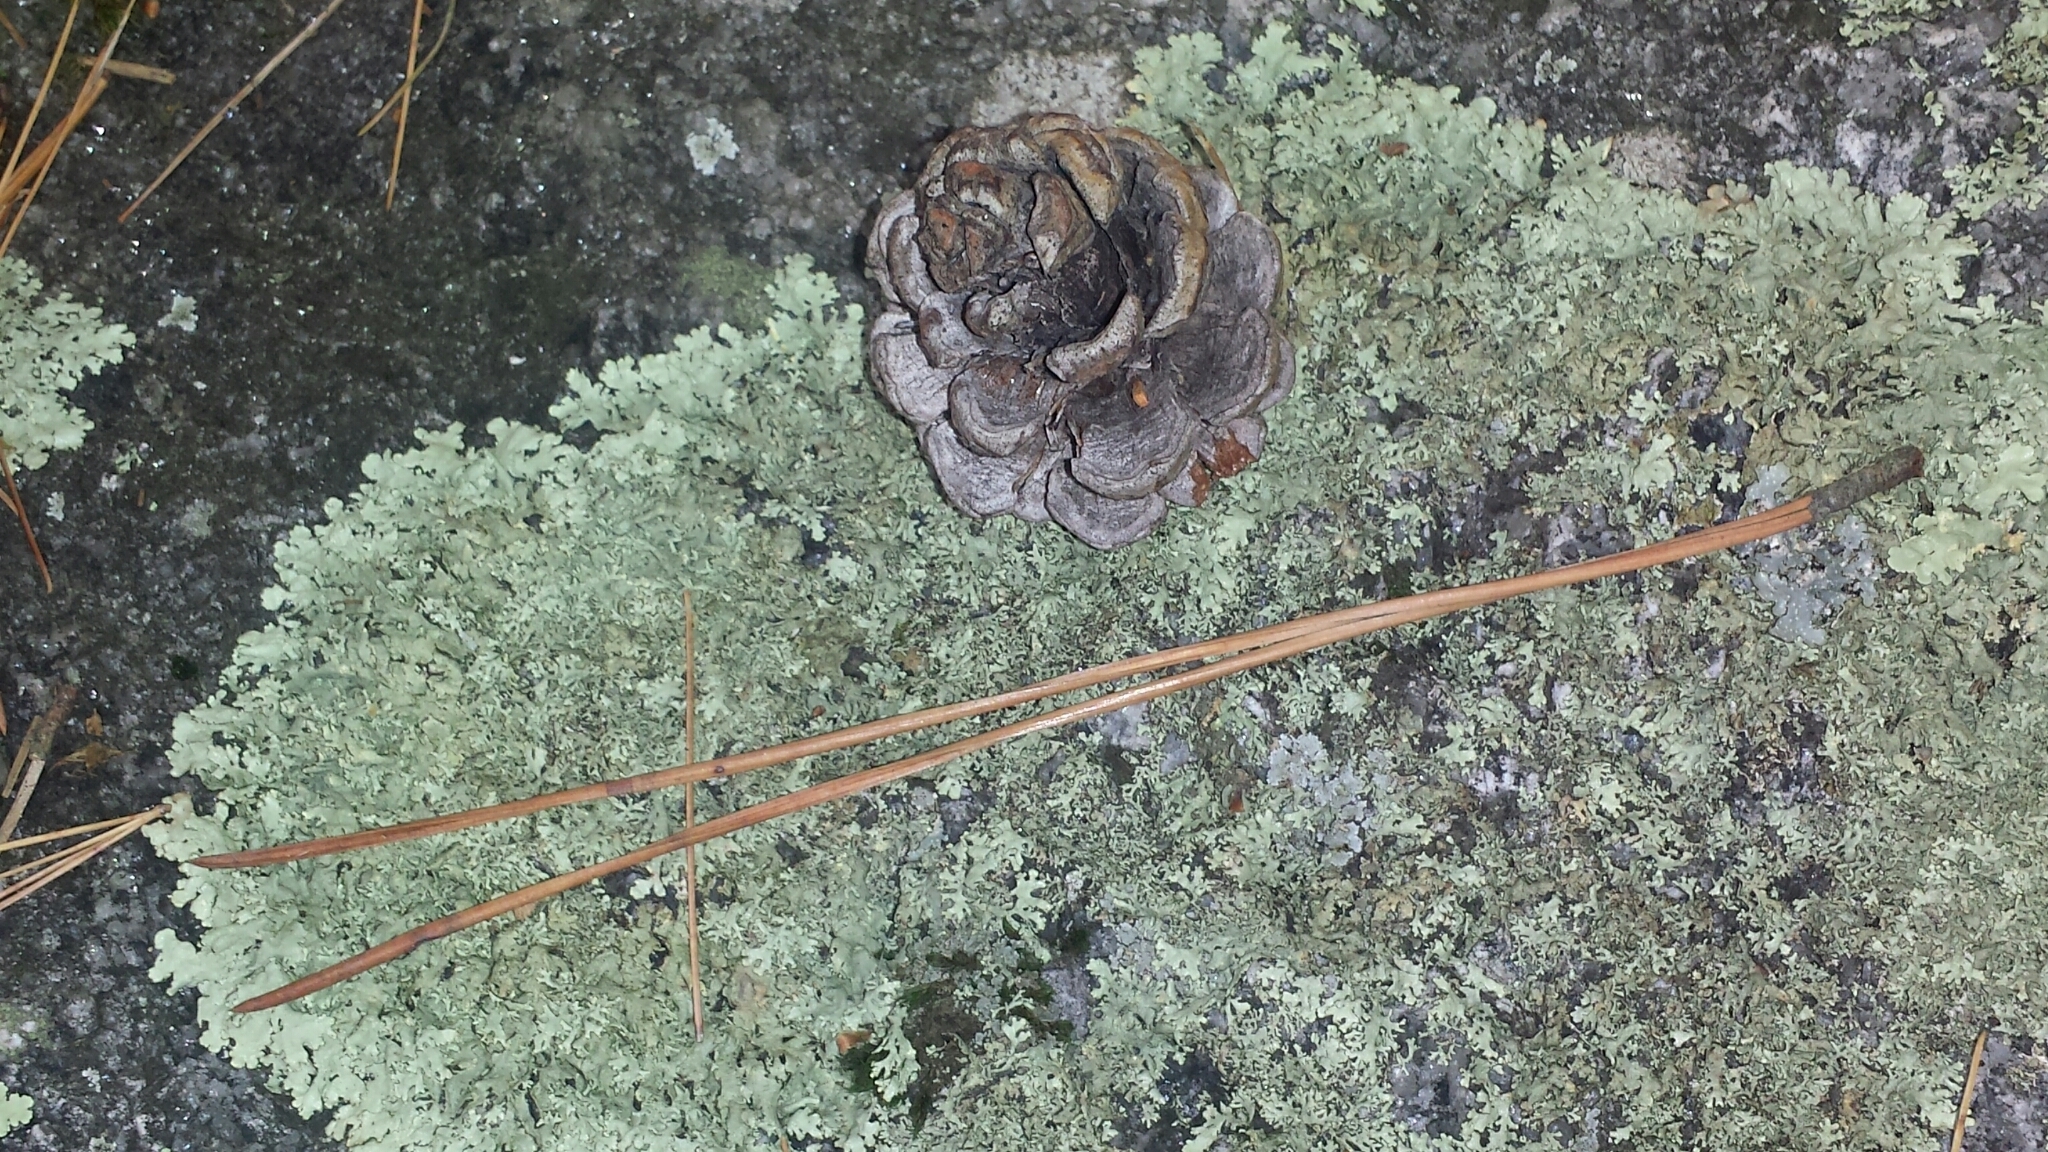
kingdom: Plantae
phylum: Tracheophyta
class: Pinopsida
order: Pinales
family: Pinaceae
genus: Pinus
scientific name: Pinus resinosa
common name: Norway pine
